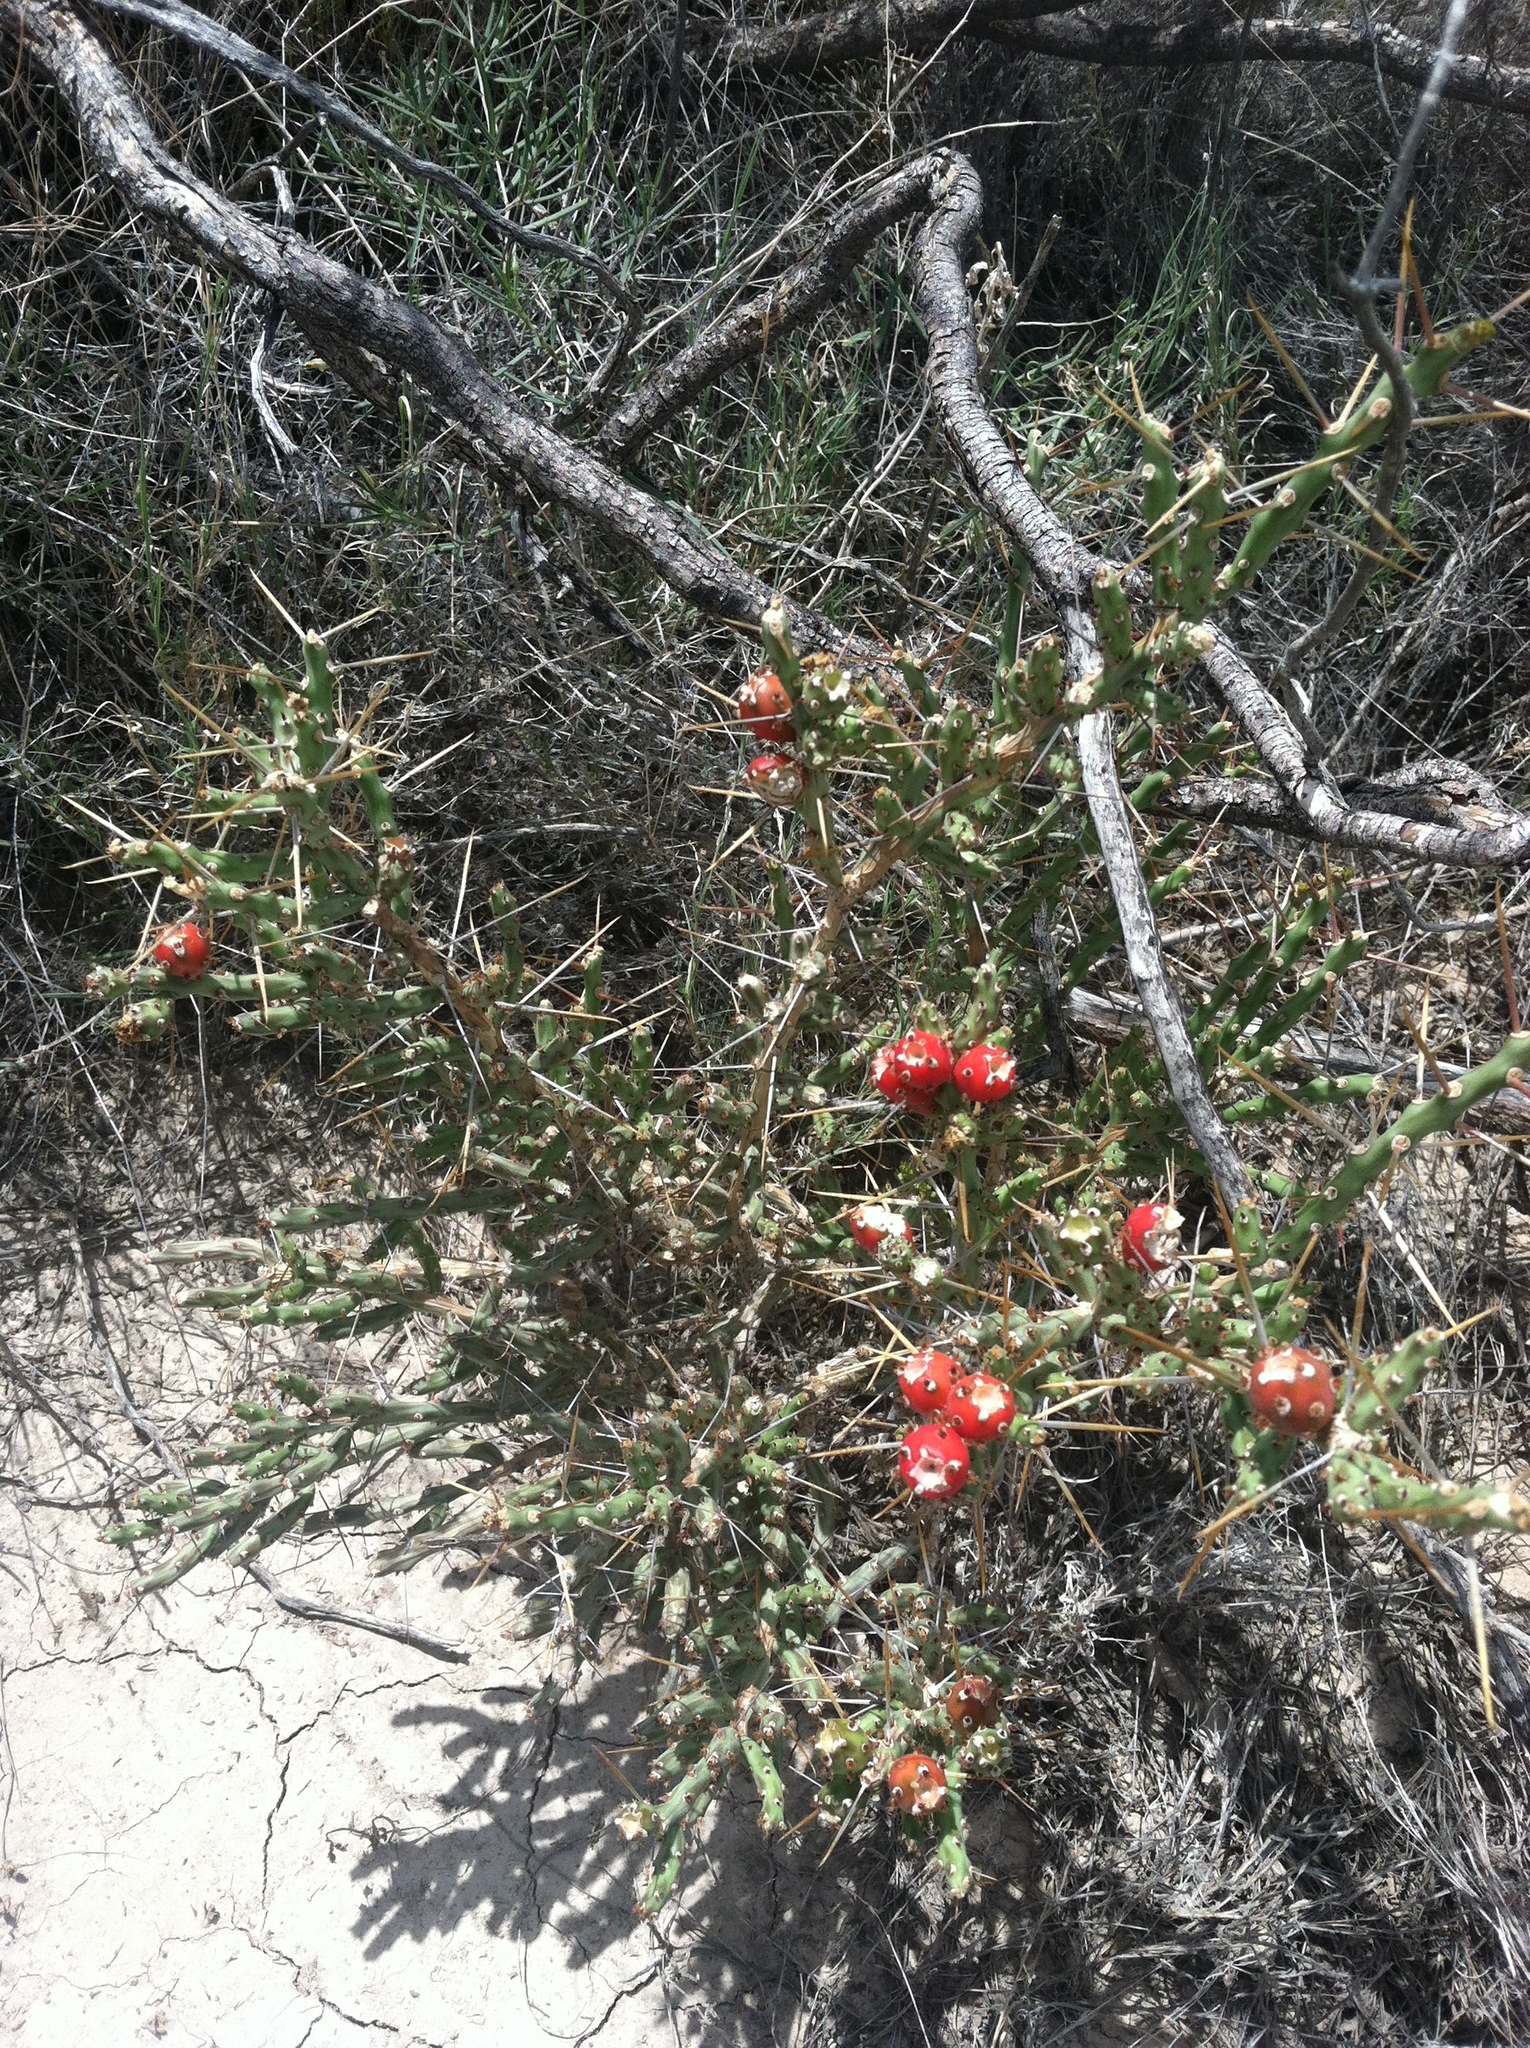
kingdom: Plantae
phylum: Tracheophyta
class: Magnoliopsida
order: Caryophyllales
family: Cactaceae
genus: Cylindropuntia
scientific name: Cylindropuntia leptocaulis
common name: Christmas cactus
